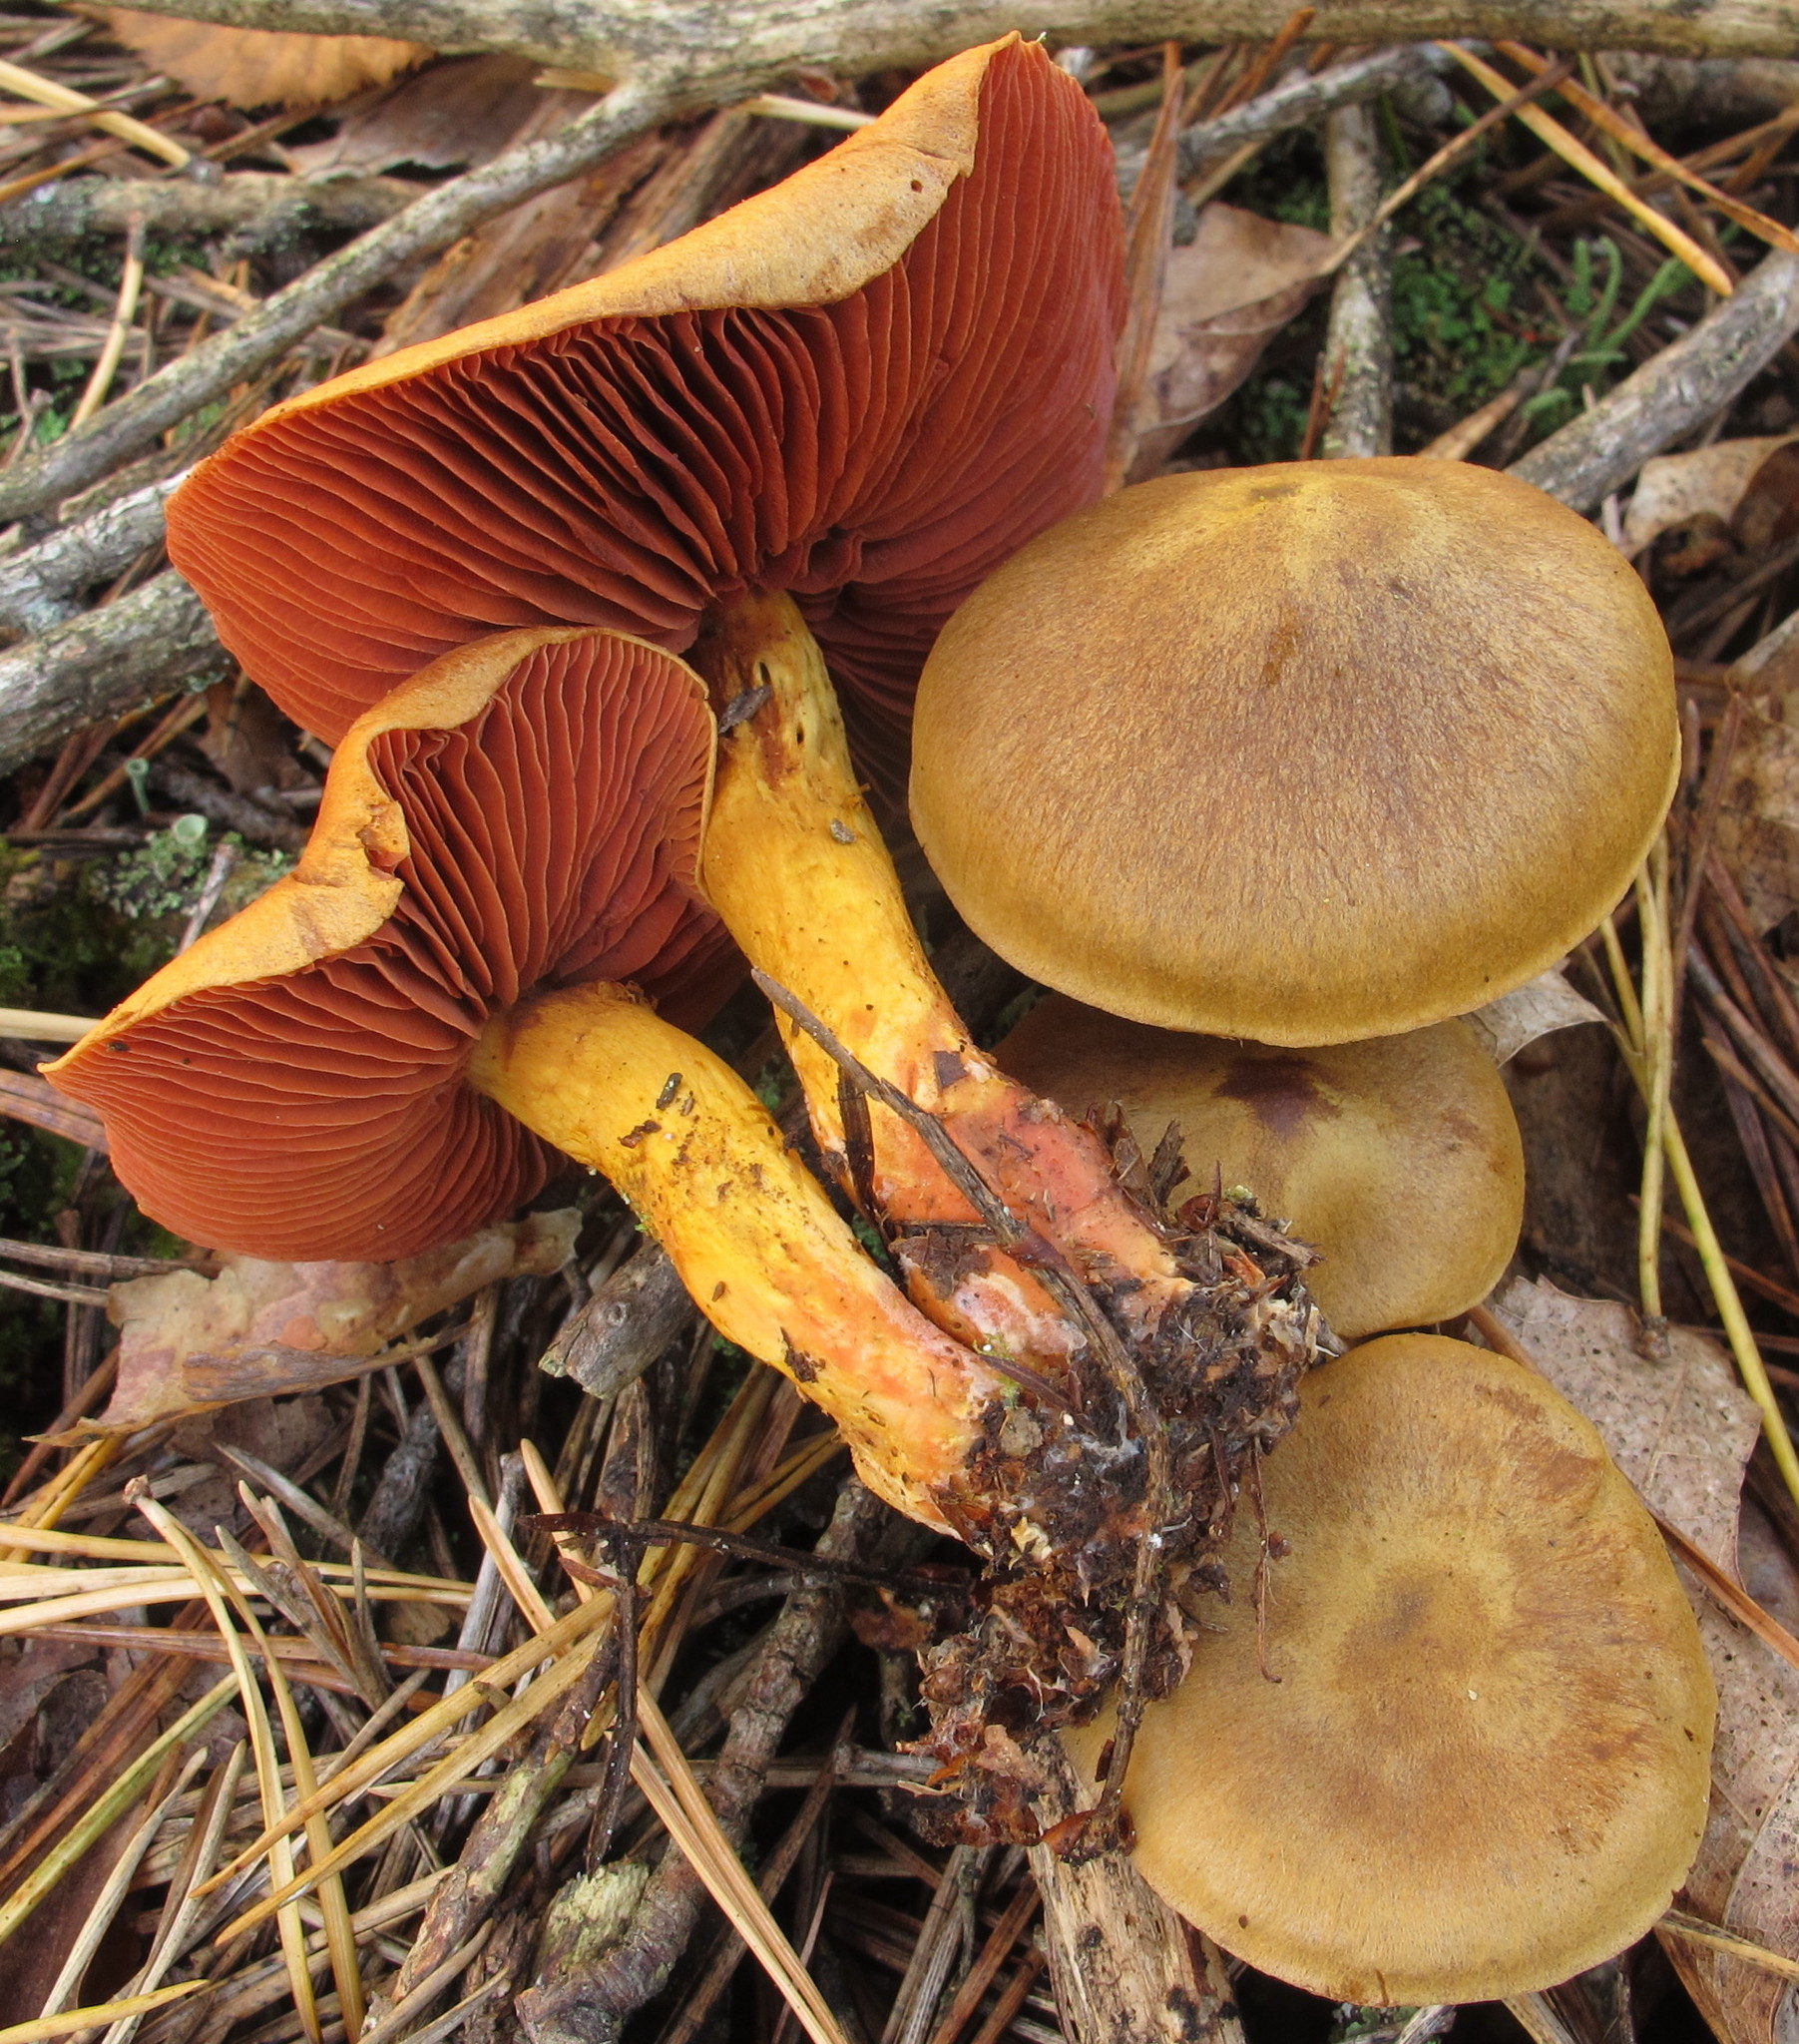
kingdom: Fungi
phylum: Basidiomycota
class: Agaricomycetes
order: Agaricales
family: Cortinariaceae
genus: Cortinarius
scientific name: Cortinarius semisanguineus
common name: Surprise webcap
